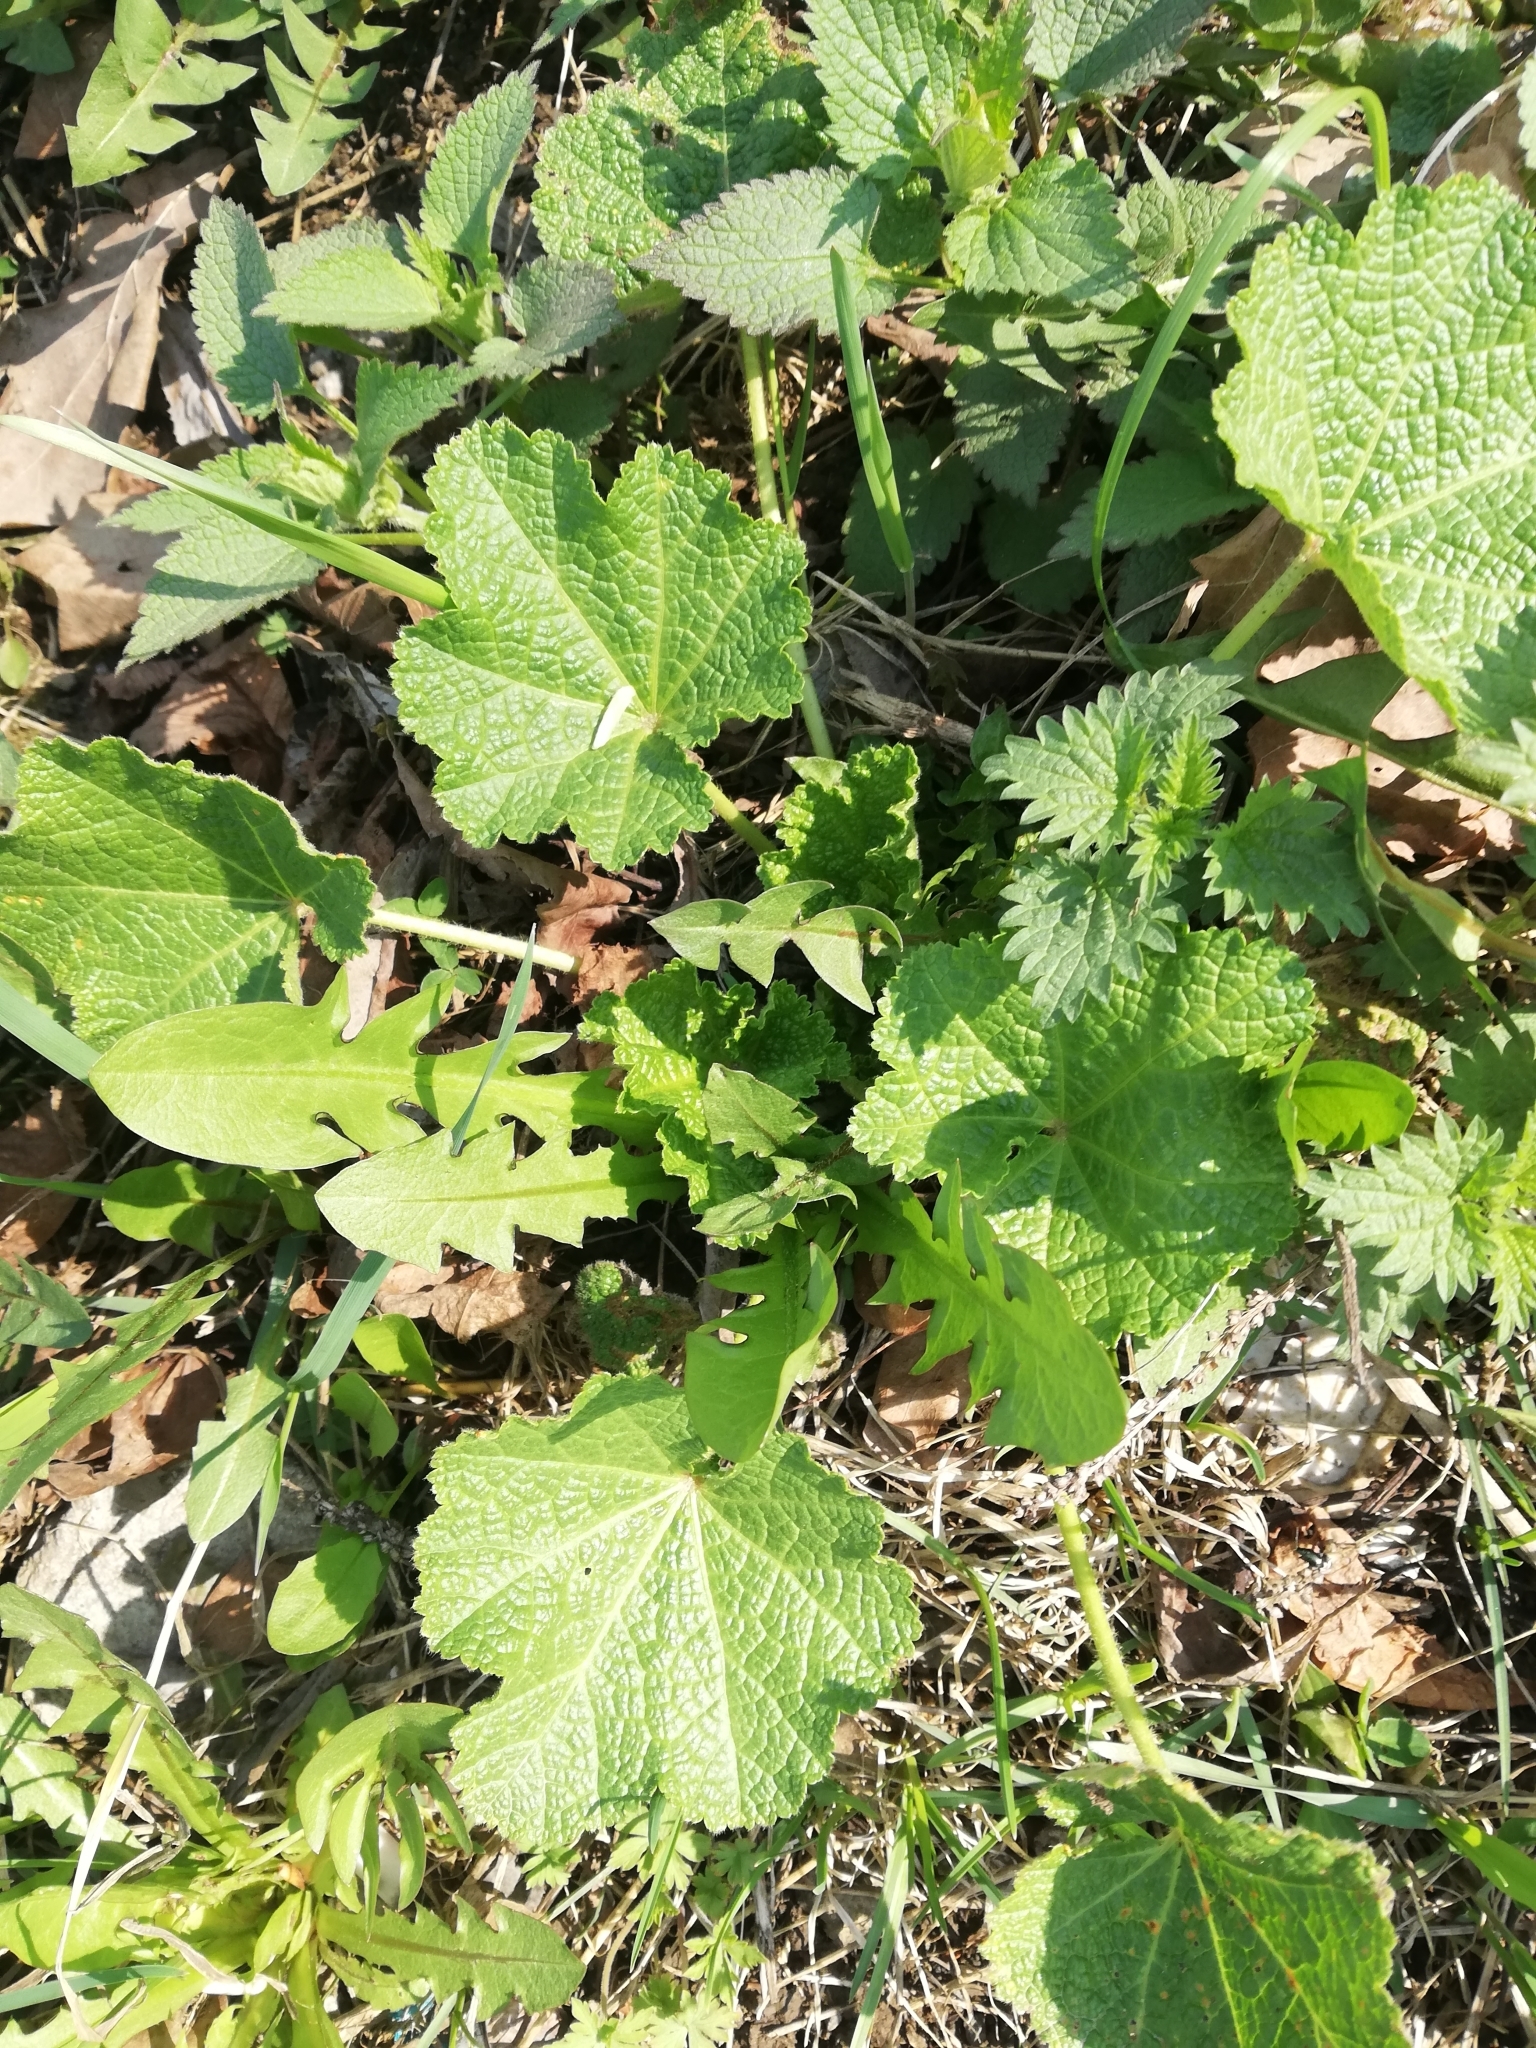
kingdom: Plantae
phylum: Tracheophyta
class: Magnoliopsida
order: Malvales
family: Malvaceae
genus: Alcea
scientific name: Alcea rosea
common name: Hollyhock
